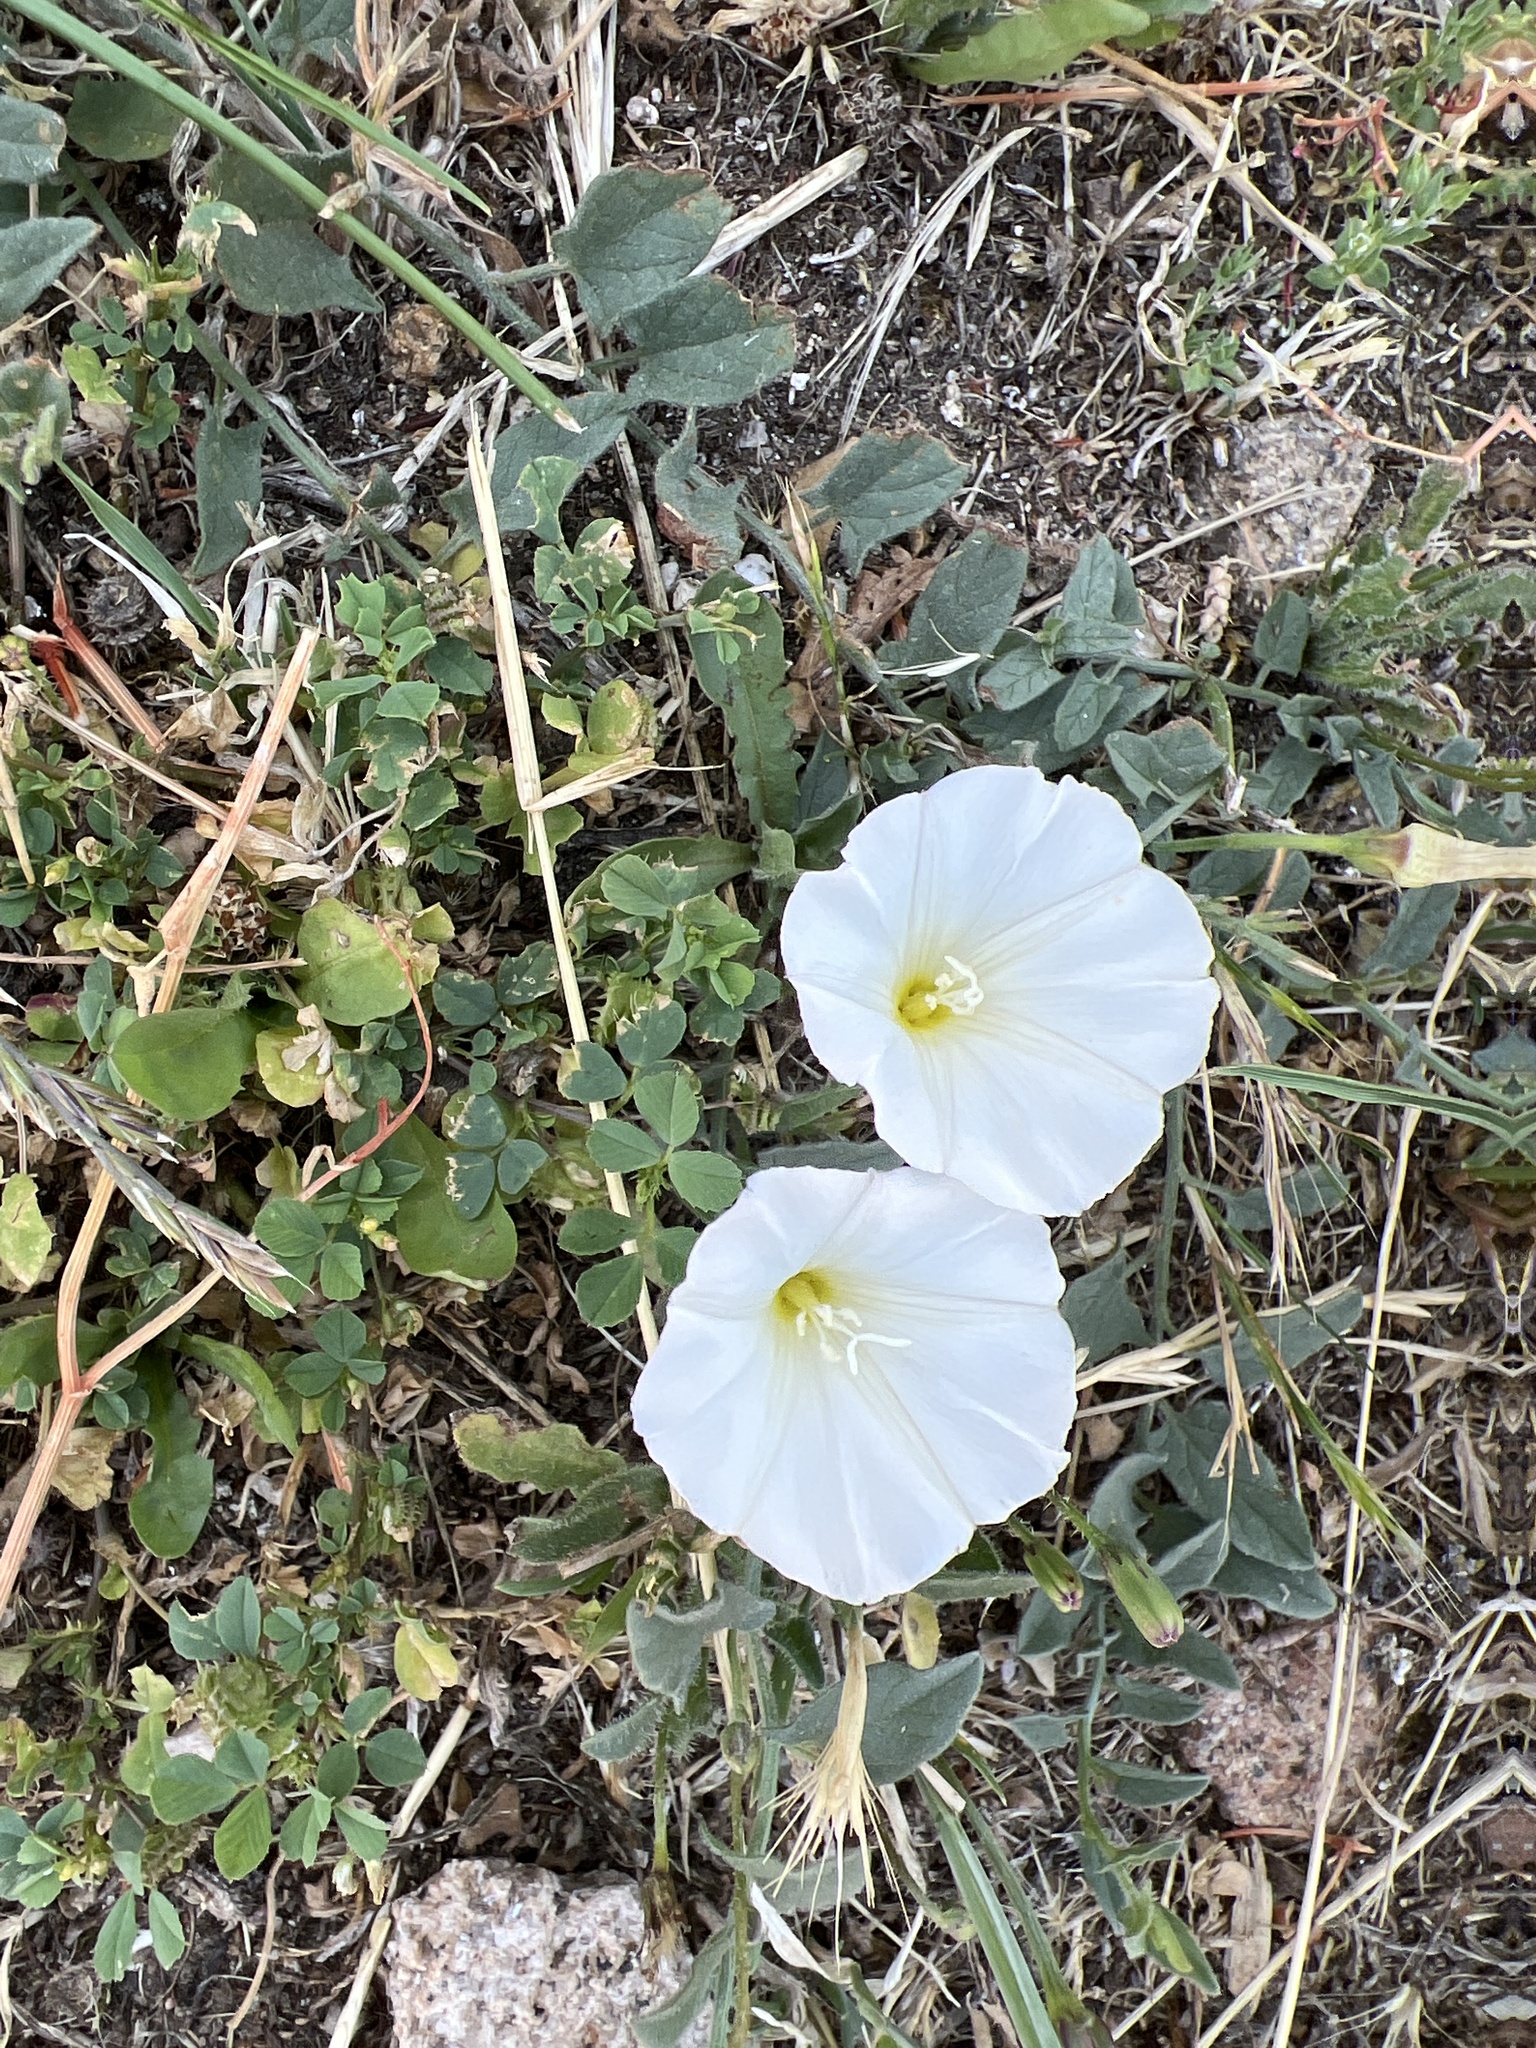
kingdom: Plantae
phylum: Tracheophyta
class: Magnoliopsida
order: Solanales
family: Convolvulaceae
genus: Convolvulus
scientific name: Convolvulus arvensis
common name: Field bindweed
